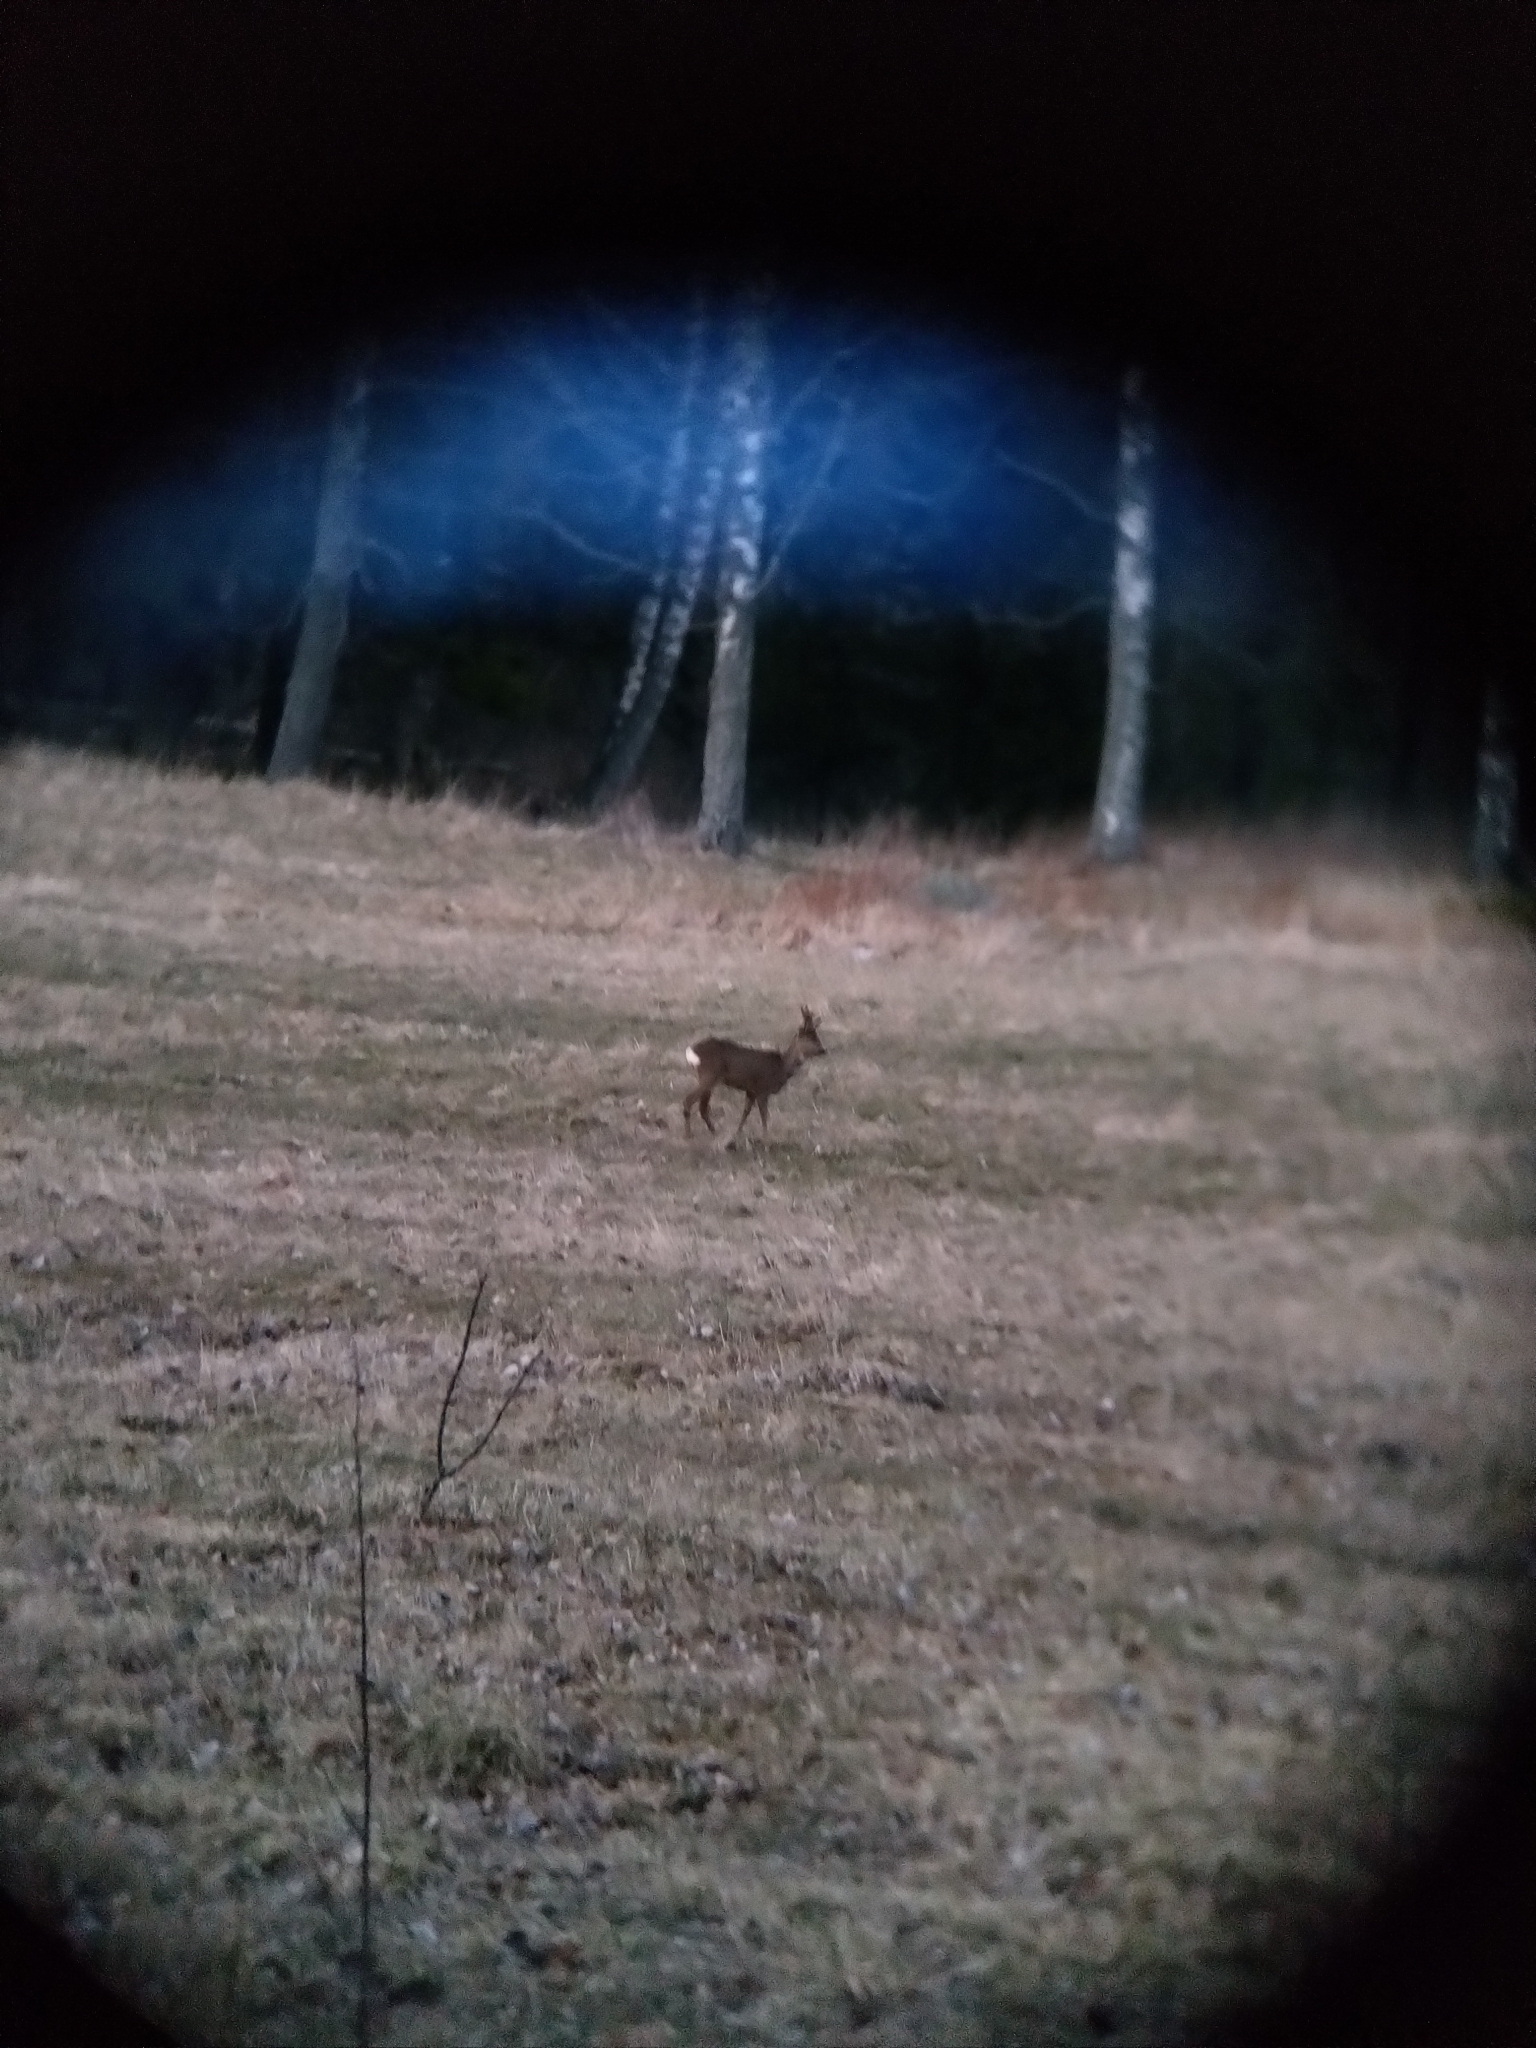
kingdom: Animalia
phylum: Chordata
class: Mammalia
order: Artiodactyla
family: Cervidae
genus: Capreolus
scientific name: Capreolus capreolus
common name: Western roe deer
